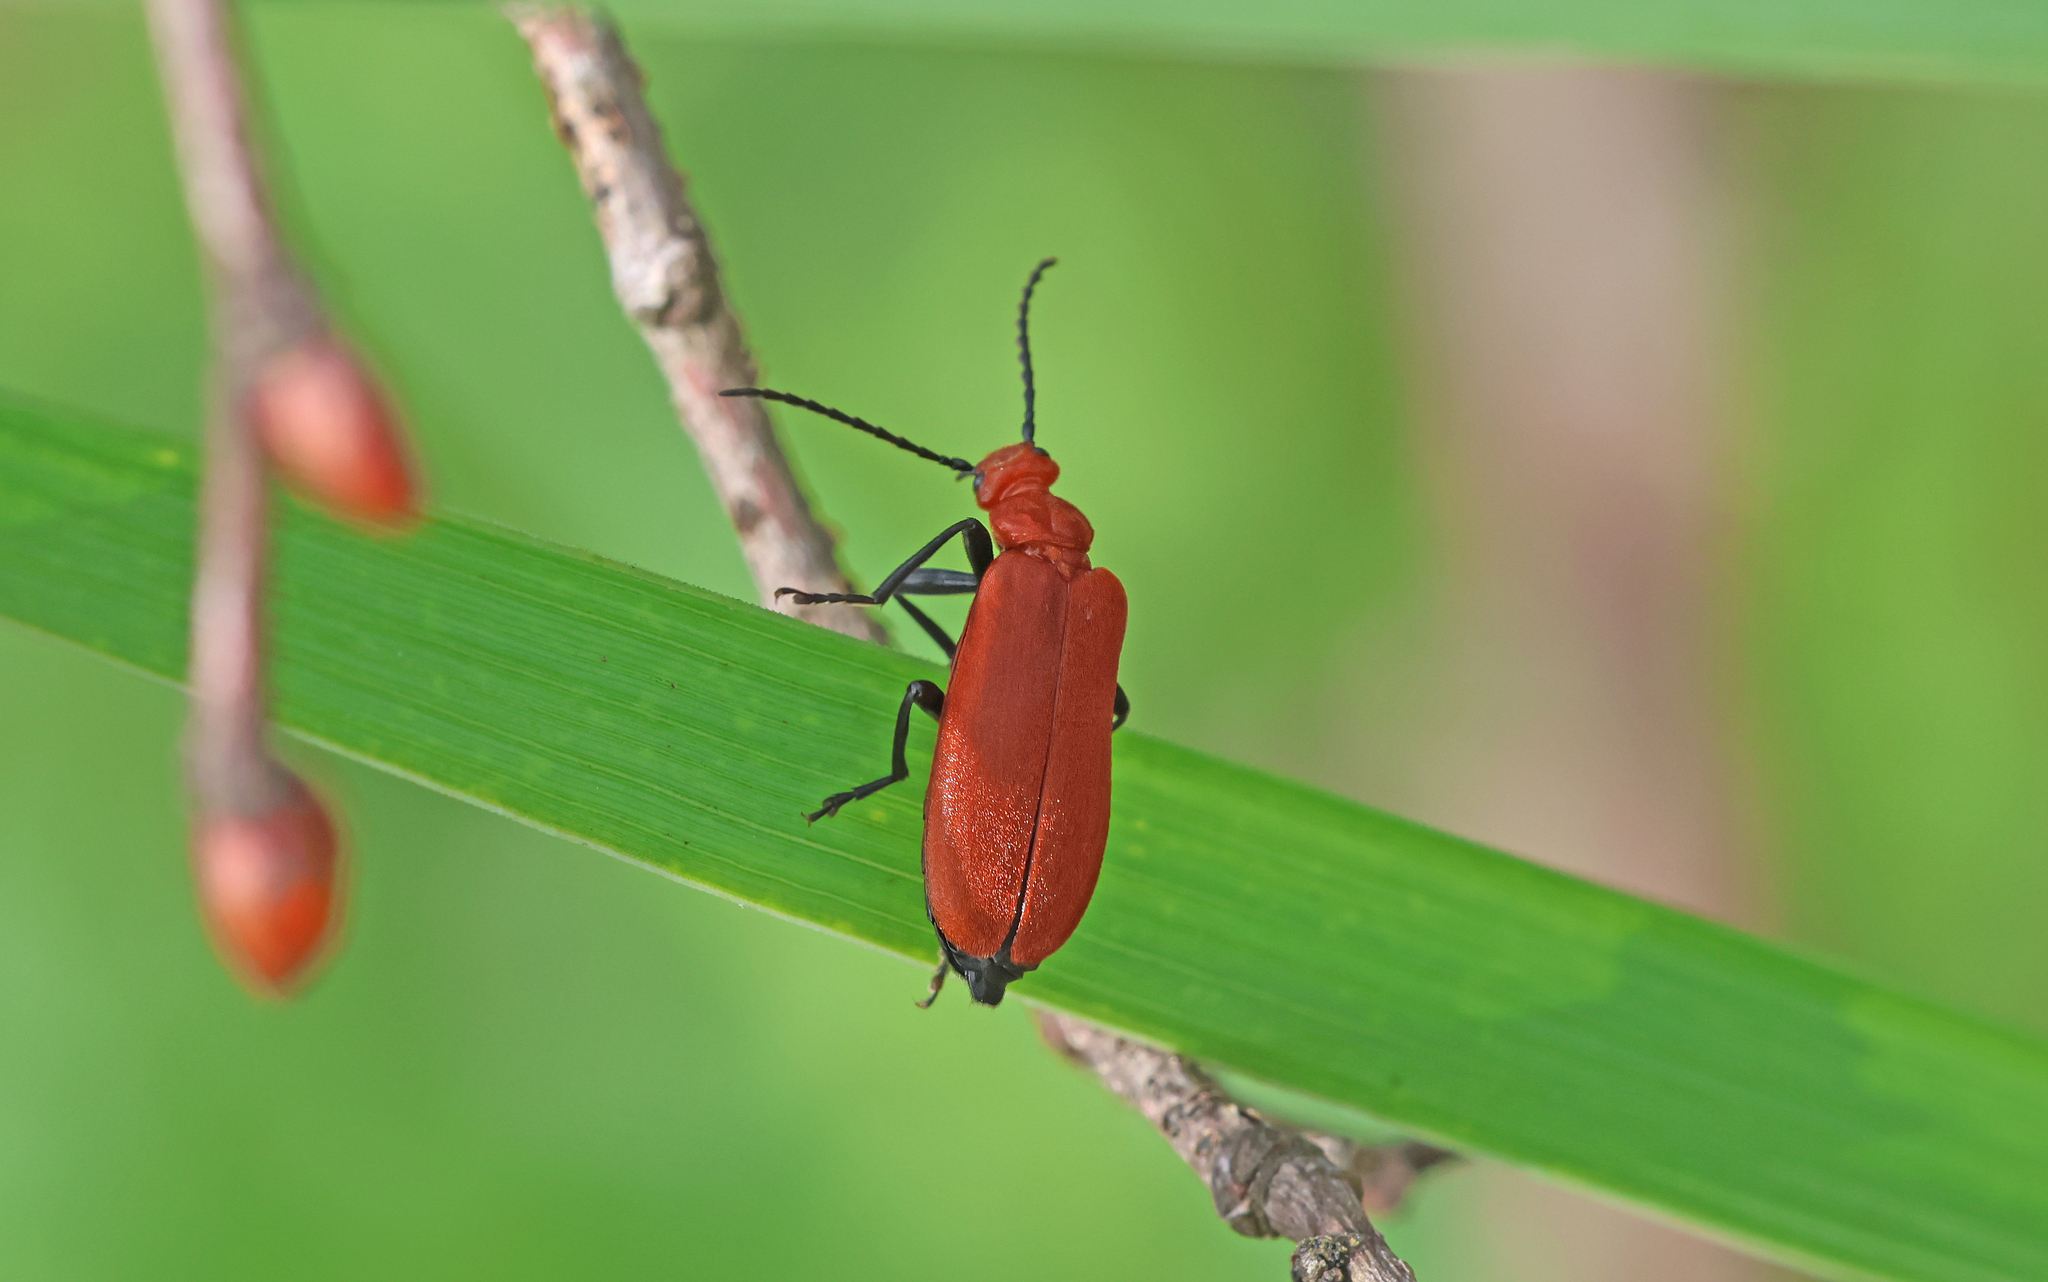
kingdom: Animalia
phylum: Arthropoda
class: Insecta
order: Coleoptera
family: Pyrochroidae
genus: Pyrochroa
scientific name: Pyrochroa serraticornis
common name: Red-headed cardinal beetle
